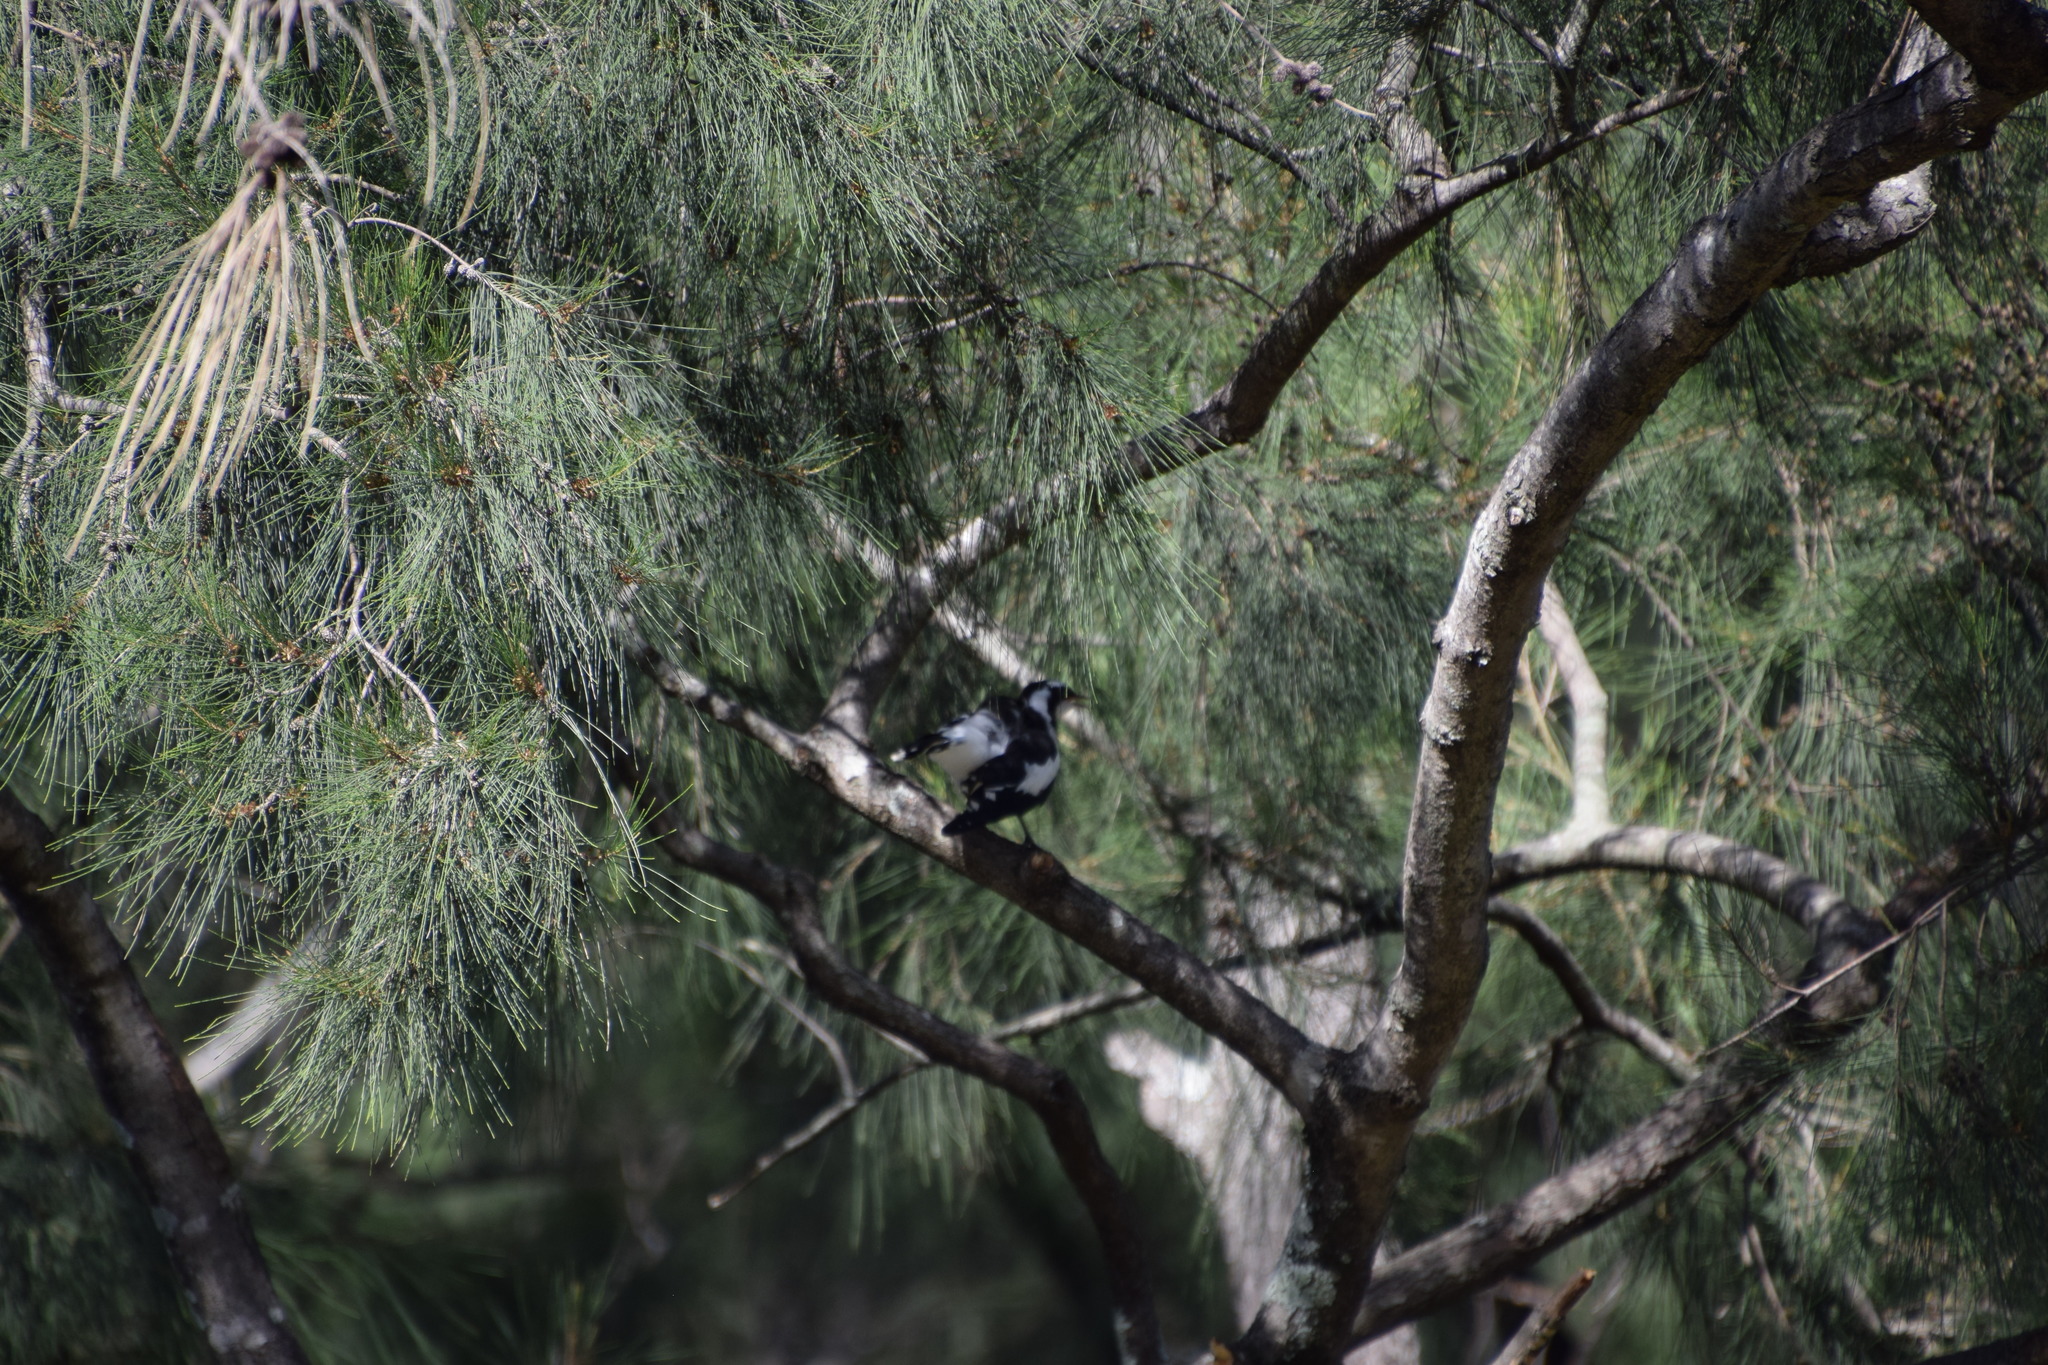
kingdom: Animalia
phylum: Chordata
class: Aves
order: Passeriformes
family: Monarchidae
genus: Grallina
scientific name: Grallina cyanoleuca
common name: Magpie-lark
